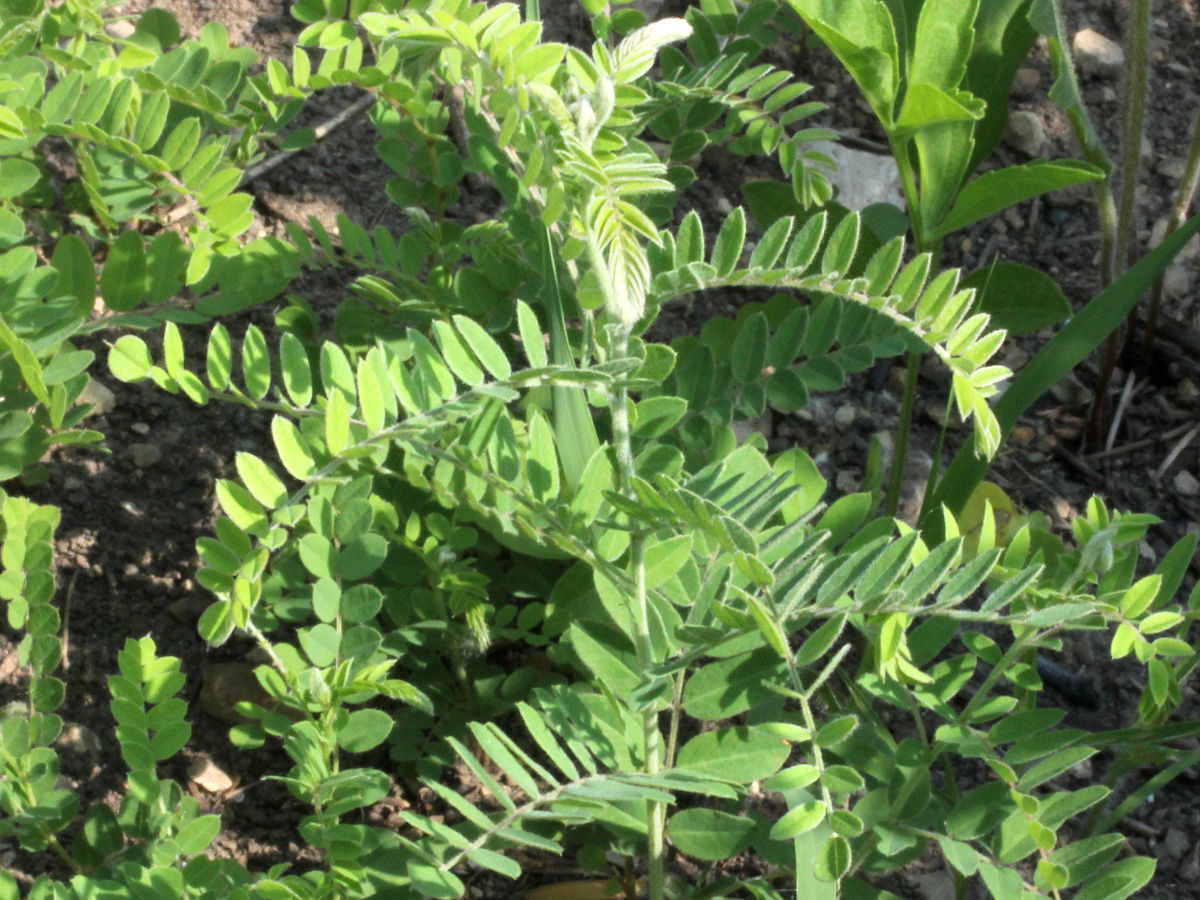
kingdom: Plantae
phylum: Tracheophyta
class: Magnoliopsida
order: Fabales
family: Fabaceae
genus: Dalea
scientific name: Dalea foliosa
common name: Leafy prairie-clover
